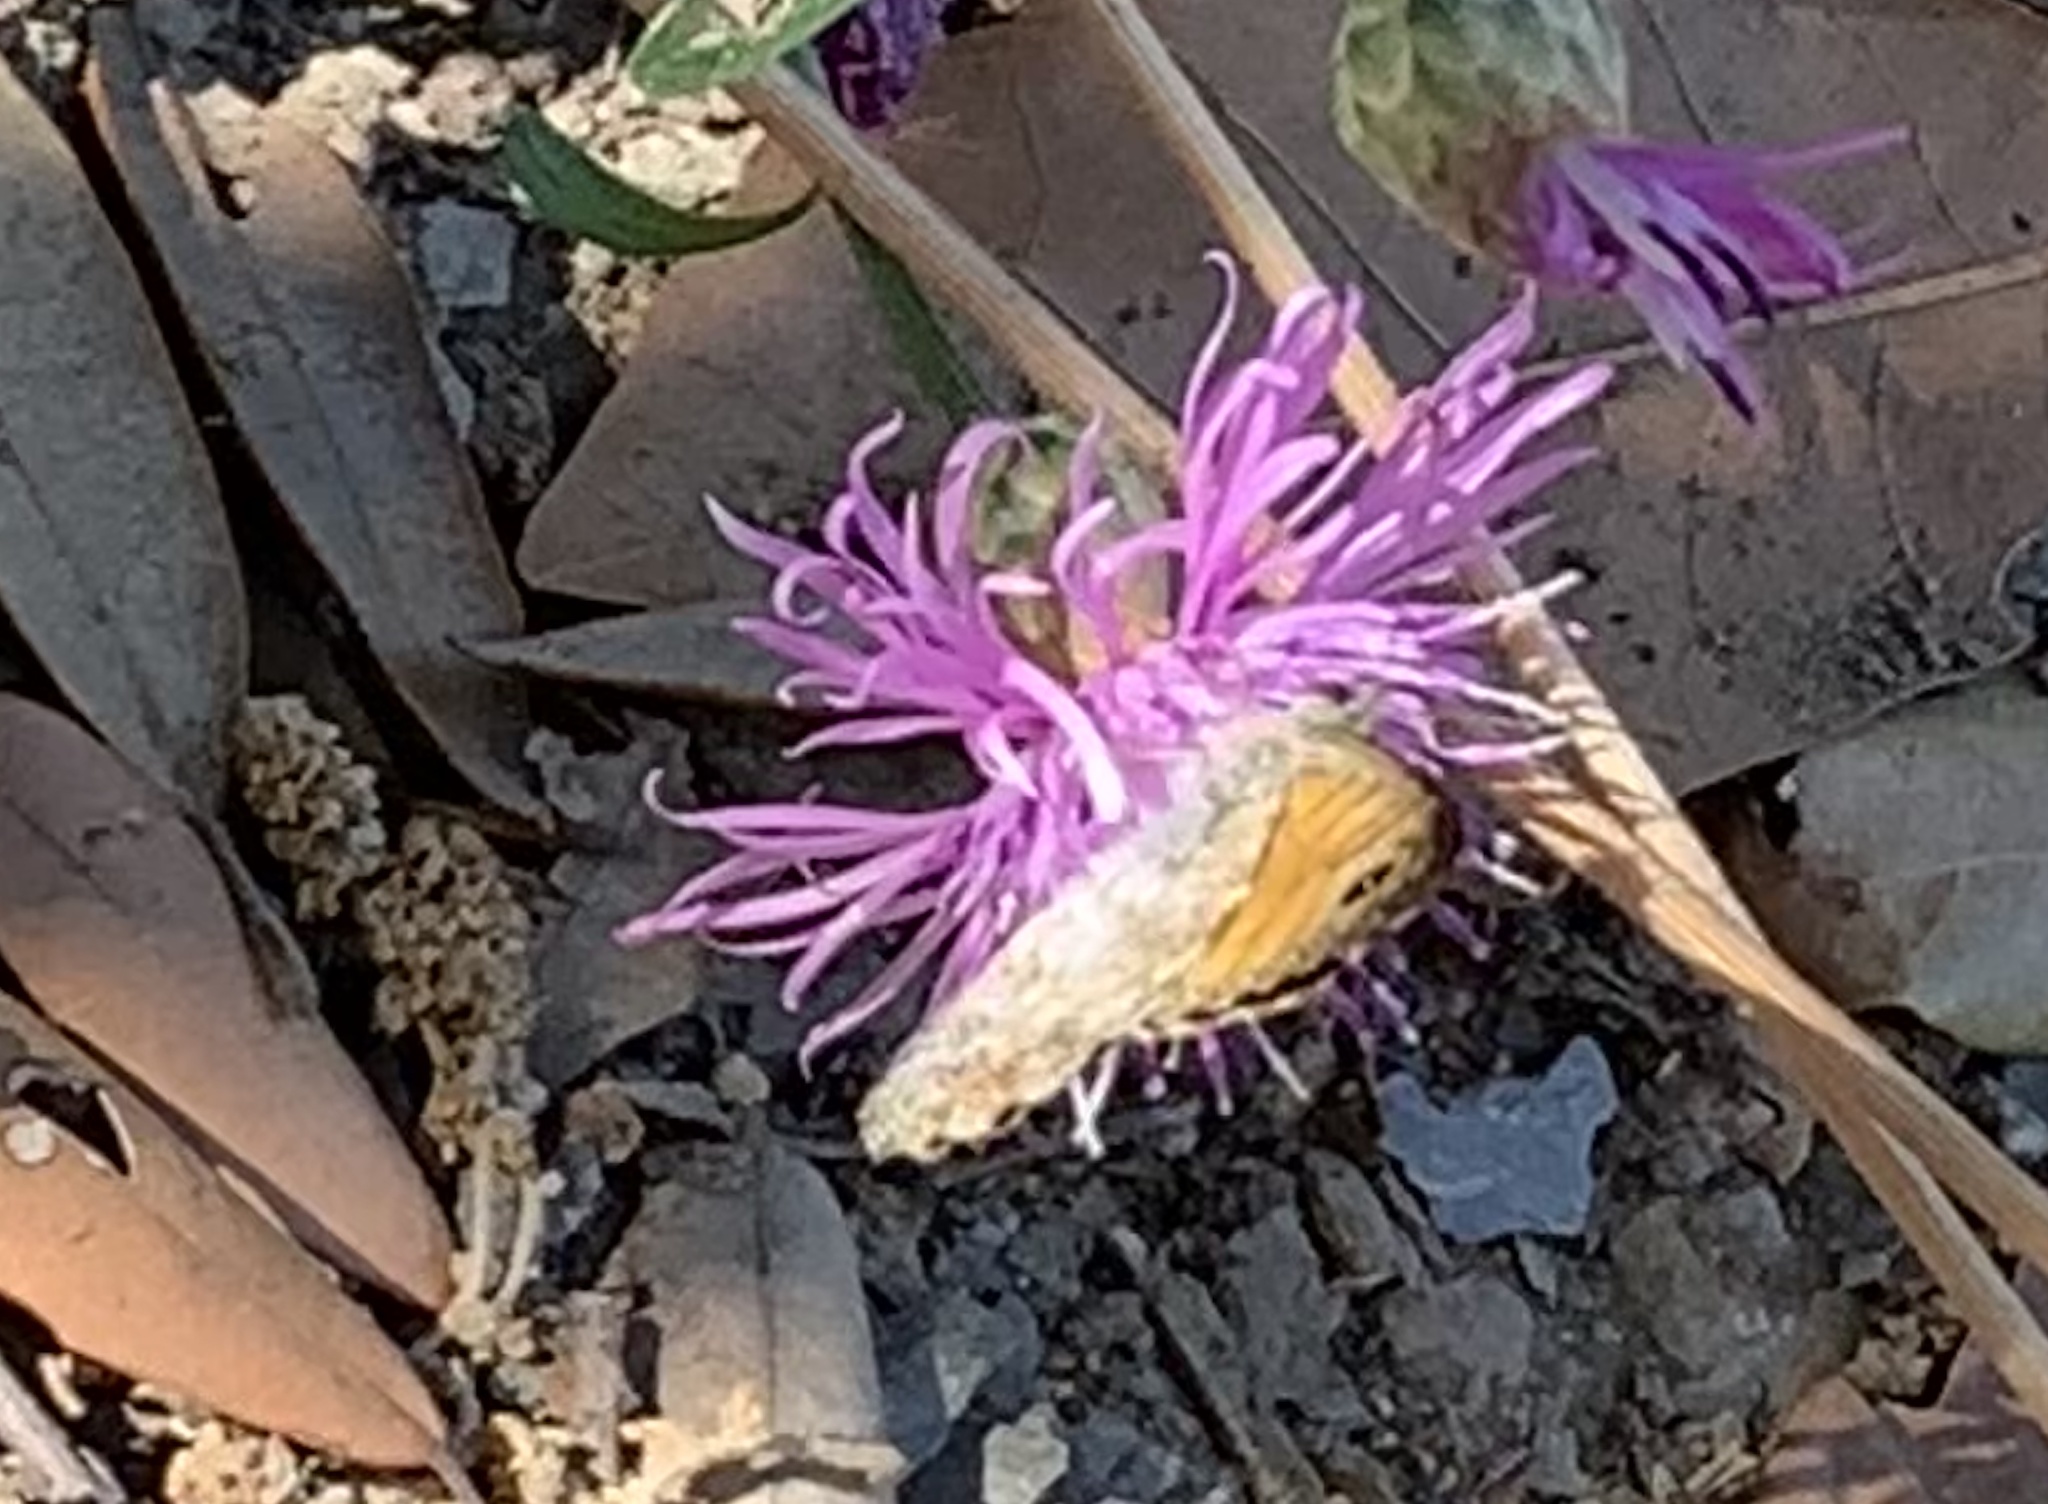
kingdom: Animalia
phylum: Arthropoda
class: Insecta
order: Lepidoptera
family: Nymphalidae
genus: Pararge
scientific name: Pararge Lasiommata megera
